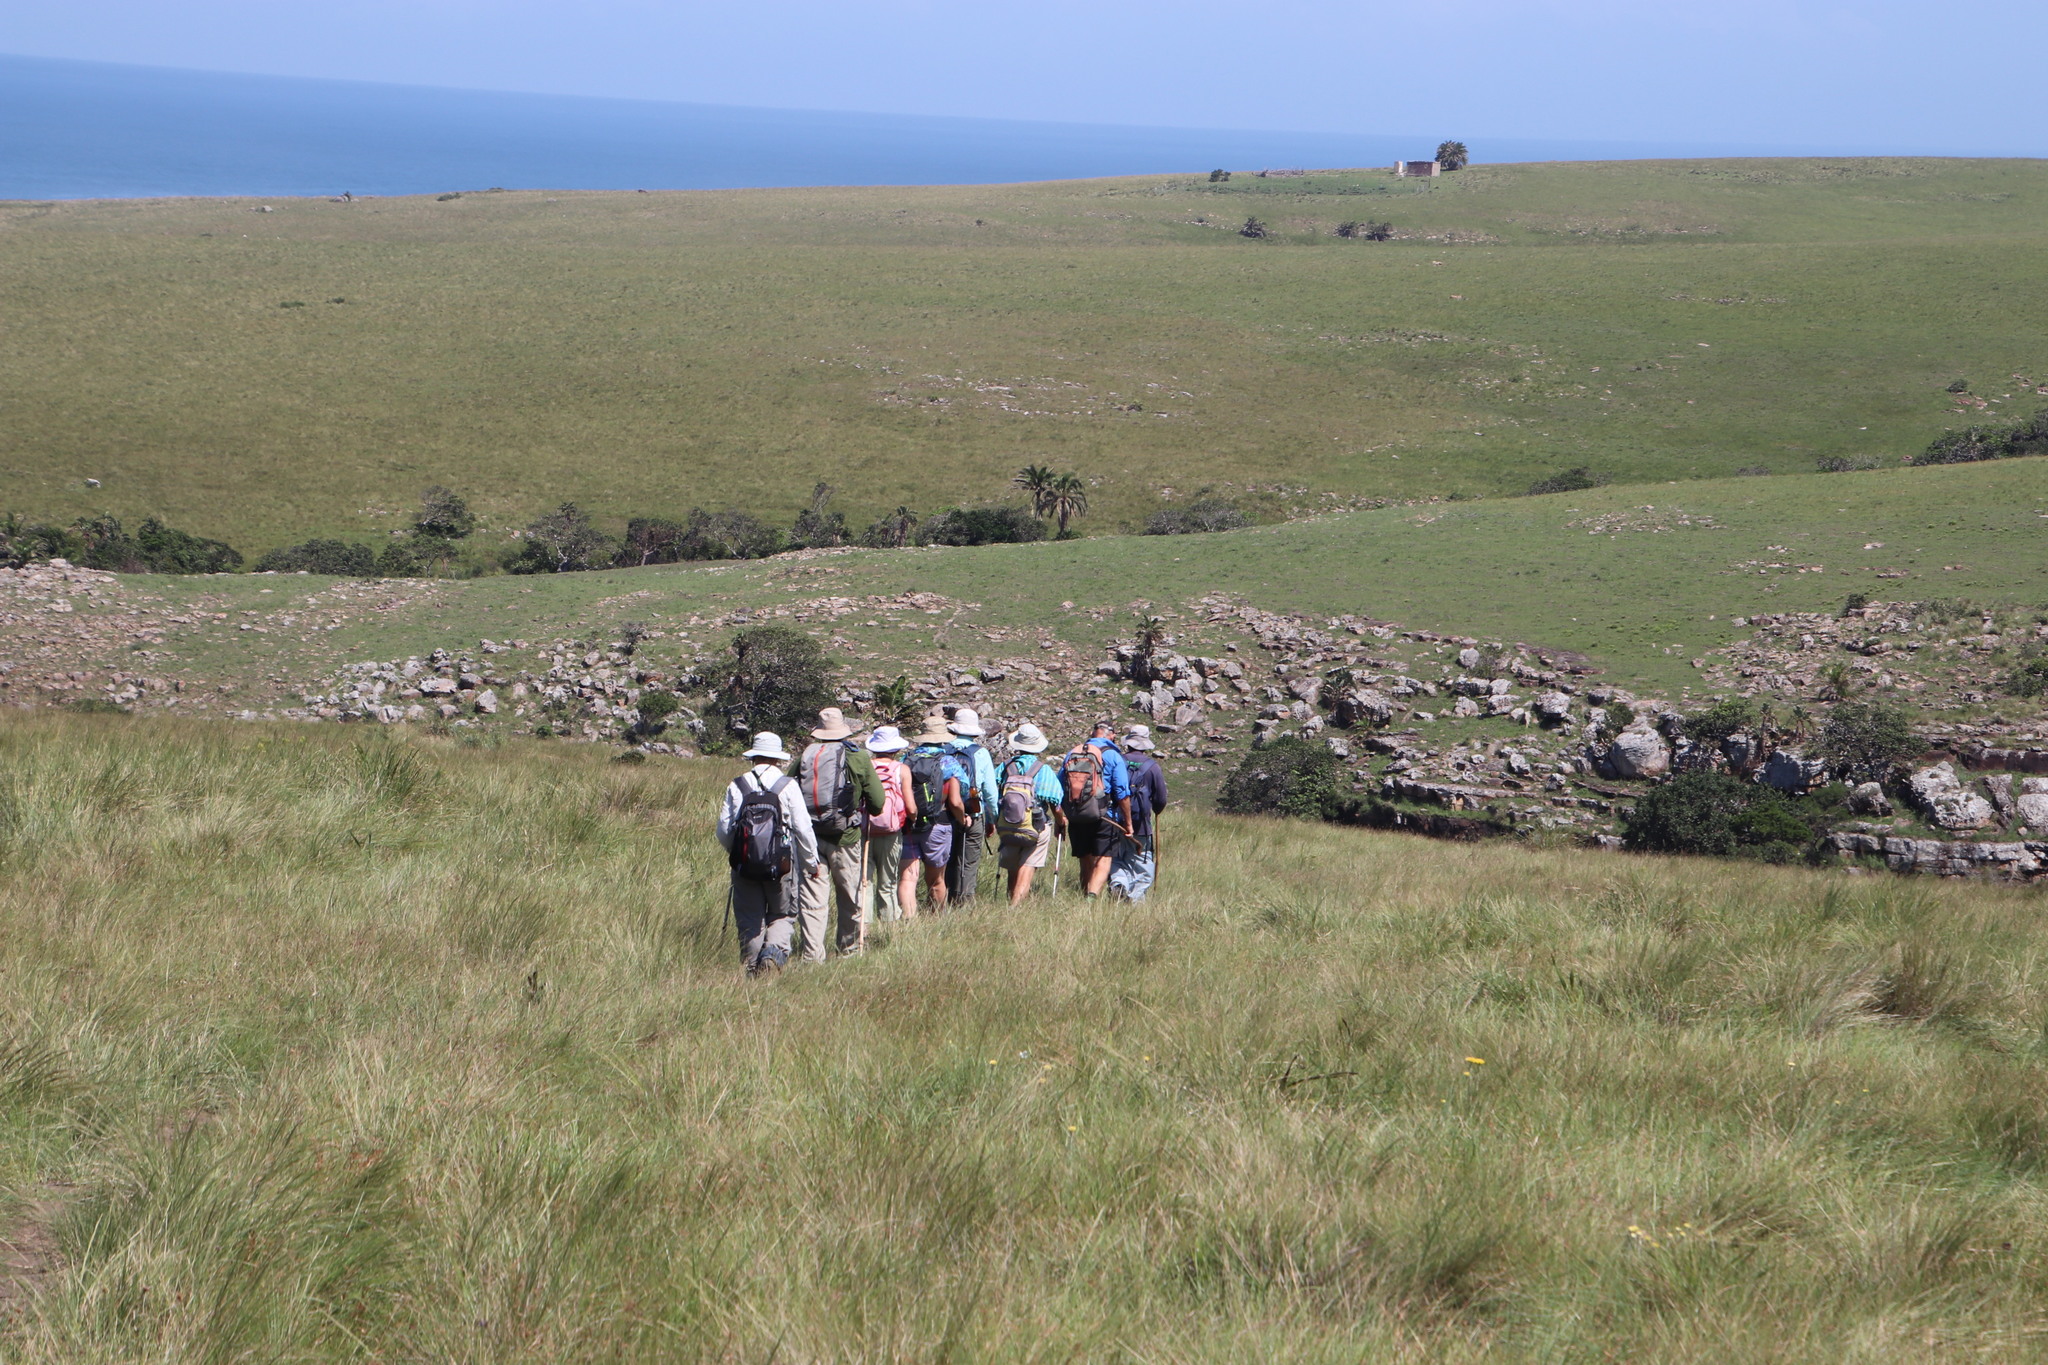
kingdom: Plantae
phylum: Tracheophyta
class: Magnoliopsida
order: Fabales
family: Fabaceae
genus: Rhynchosia
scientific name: Rhynchosia totta
